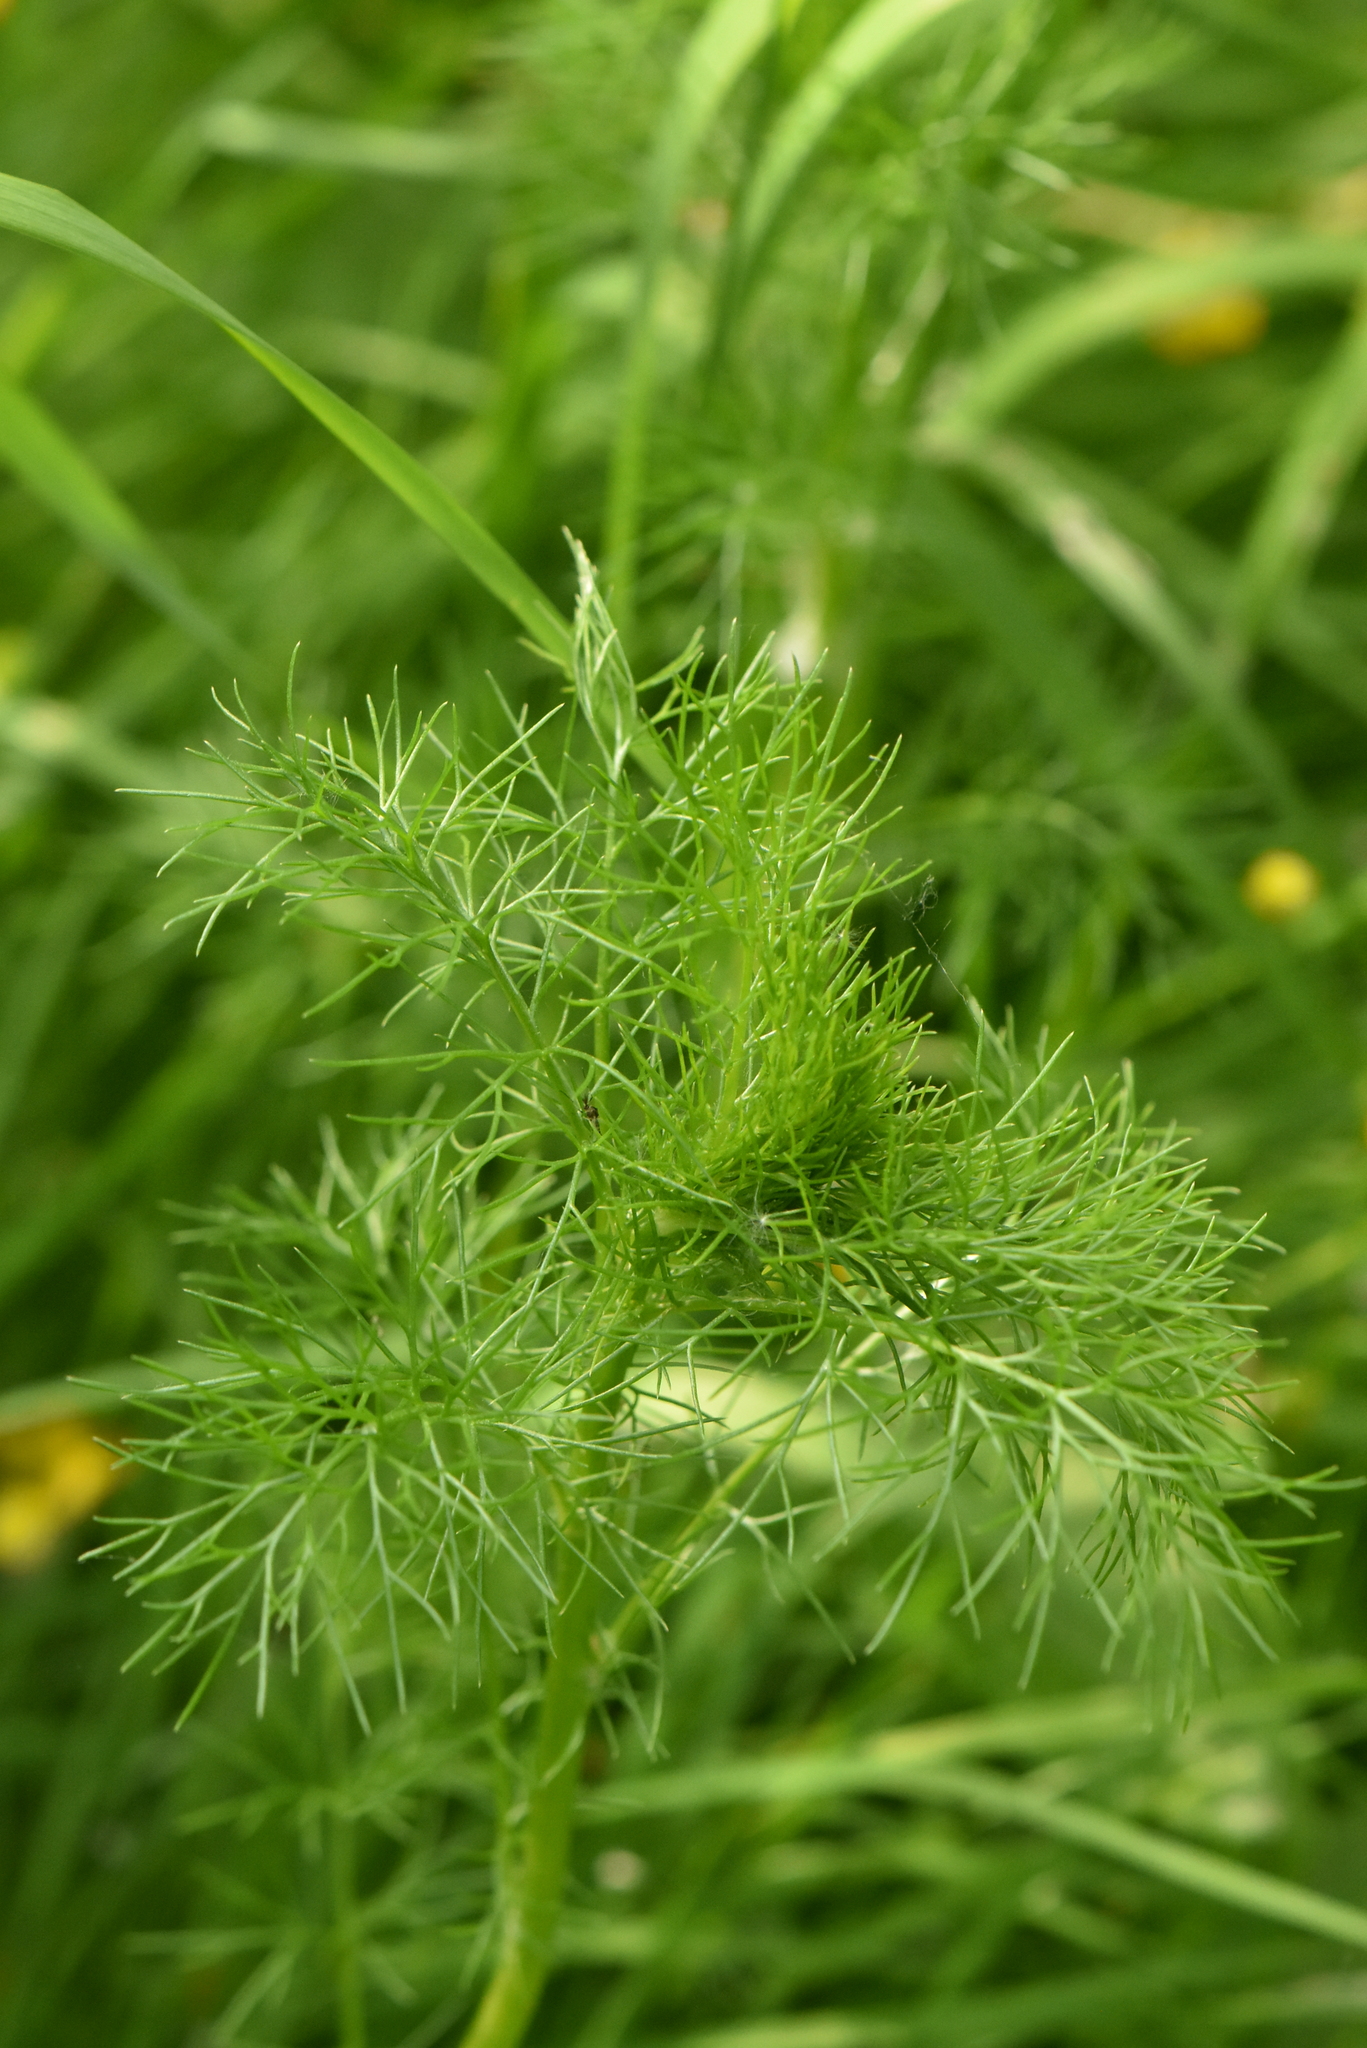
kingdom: Plantae
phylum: Tracheophyta
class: Magnoliopsida
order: Asterales
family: Asteraceae
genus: Tripleurospermum
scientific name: Tripleurospermum inodorum
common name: Scentless mayweed
